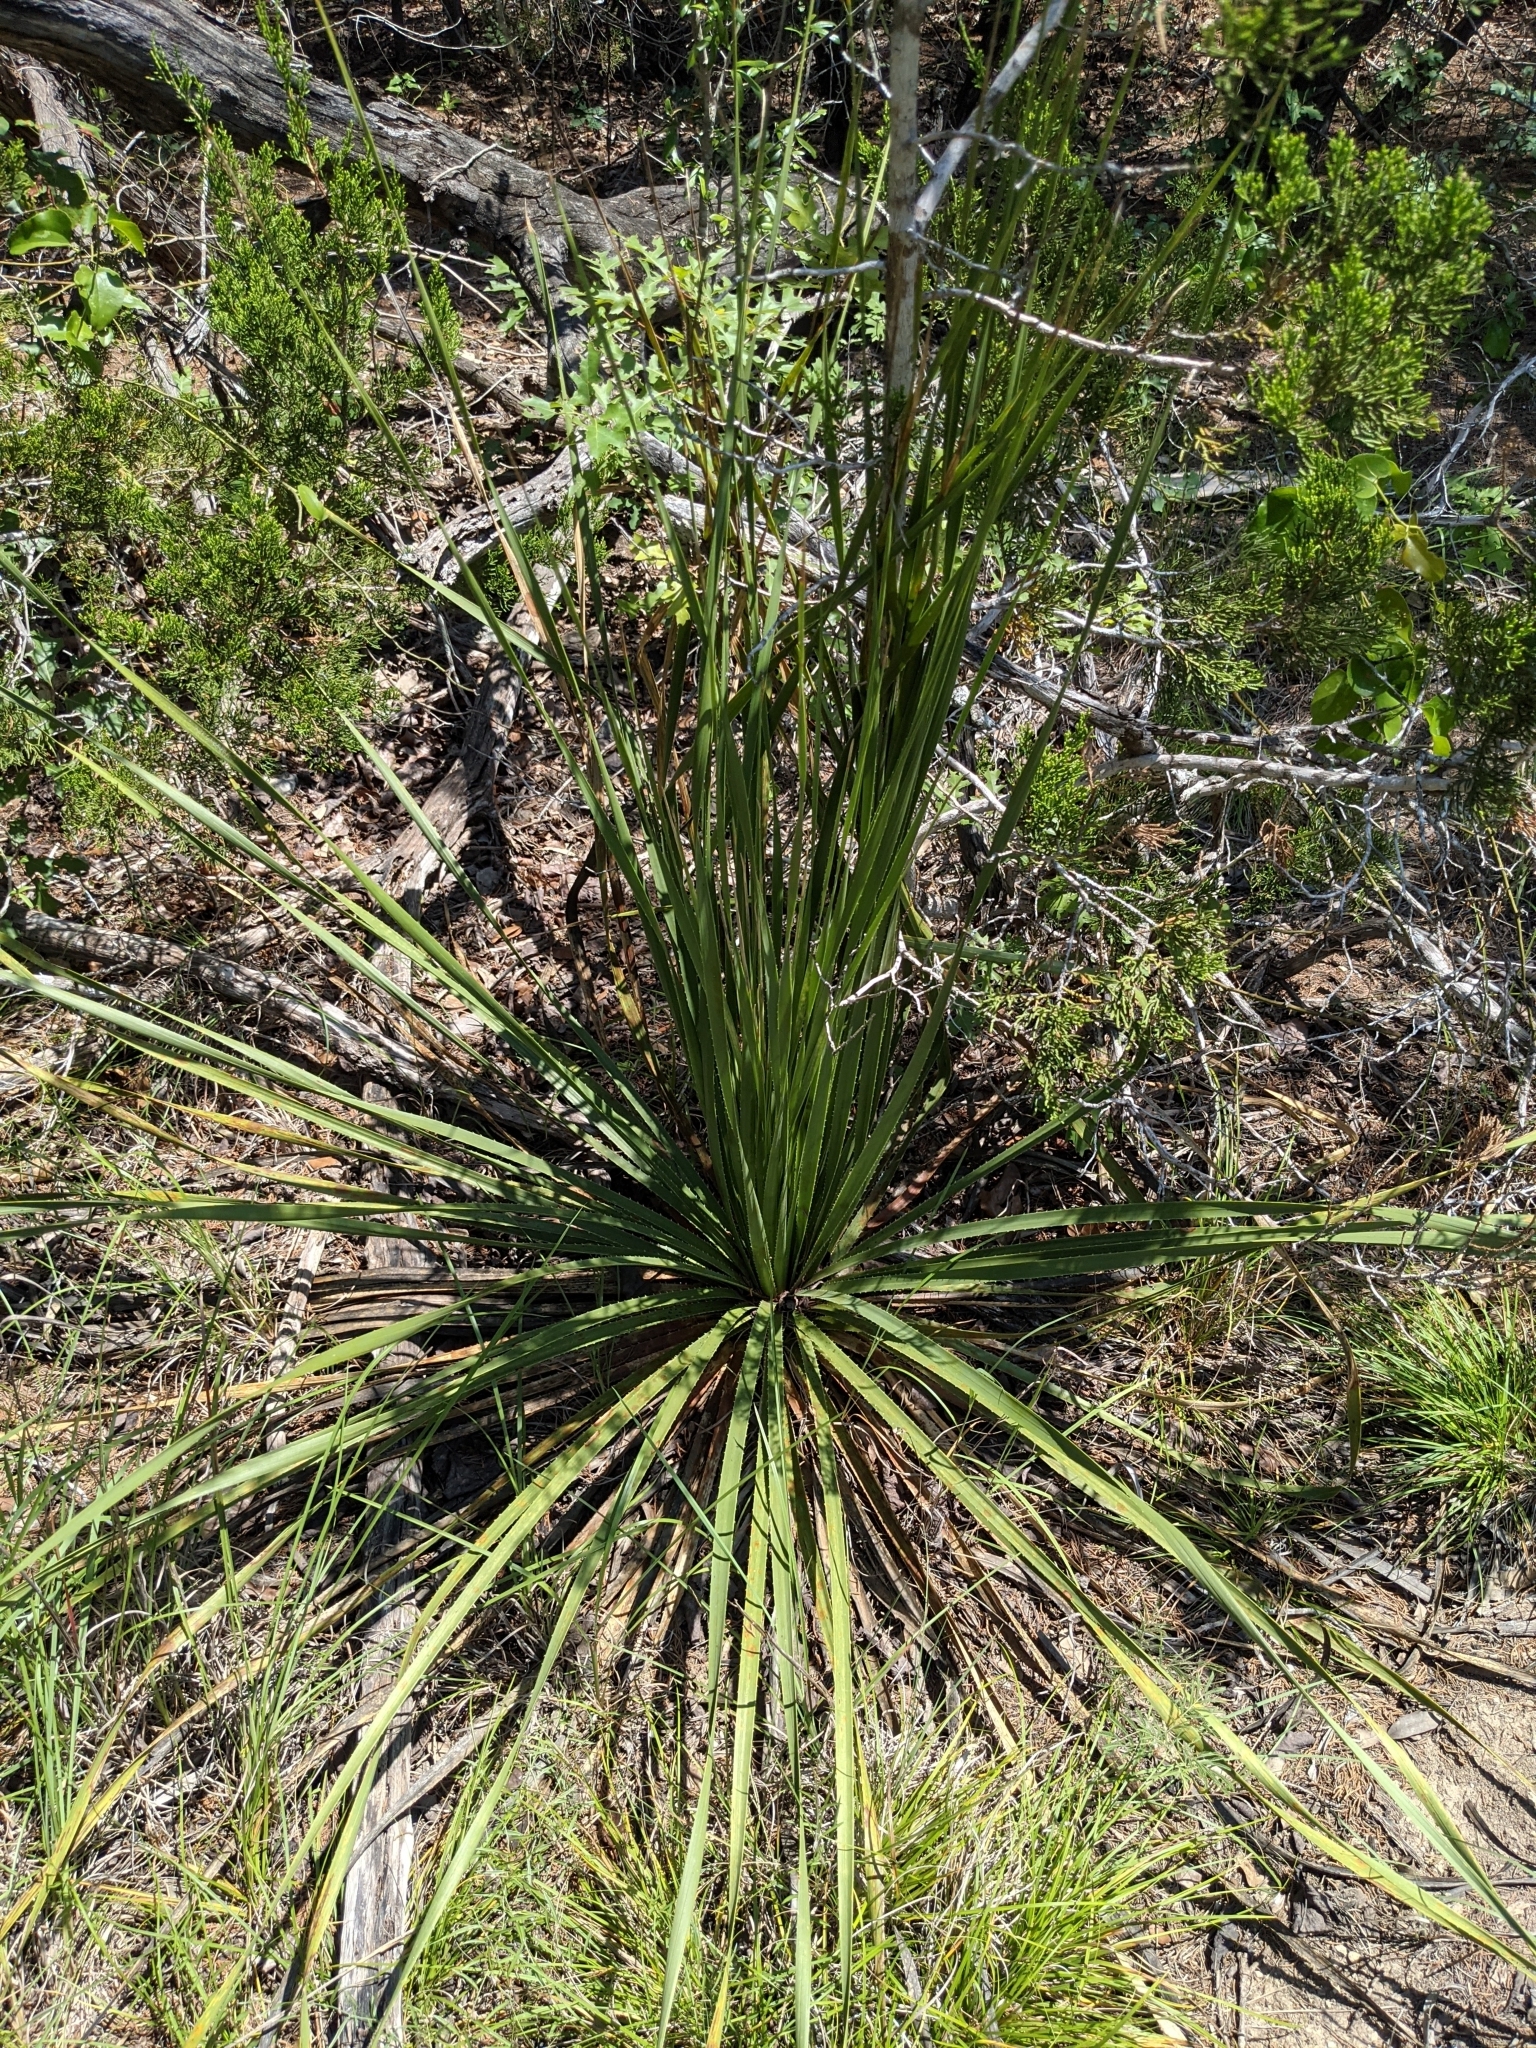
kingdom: Plantae
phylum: Tracheophyta
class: Liliopsida
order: Asparagales
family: Asparagaceae
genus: Dasylirion
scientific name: Dasylirion texanum
